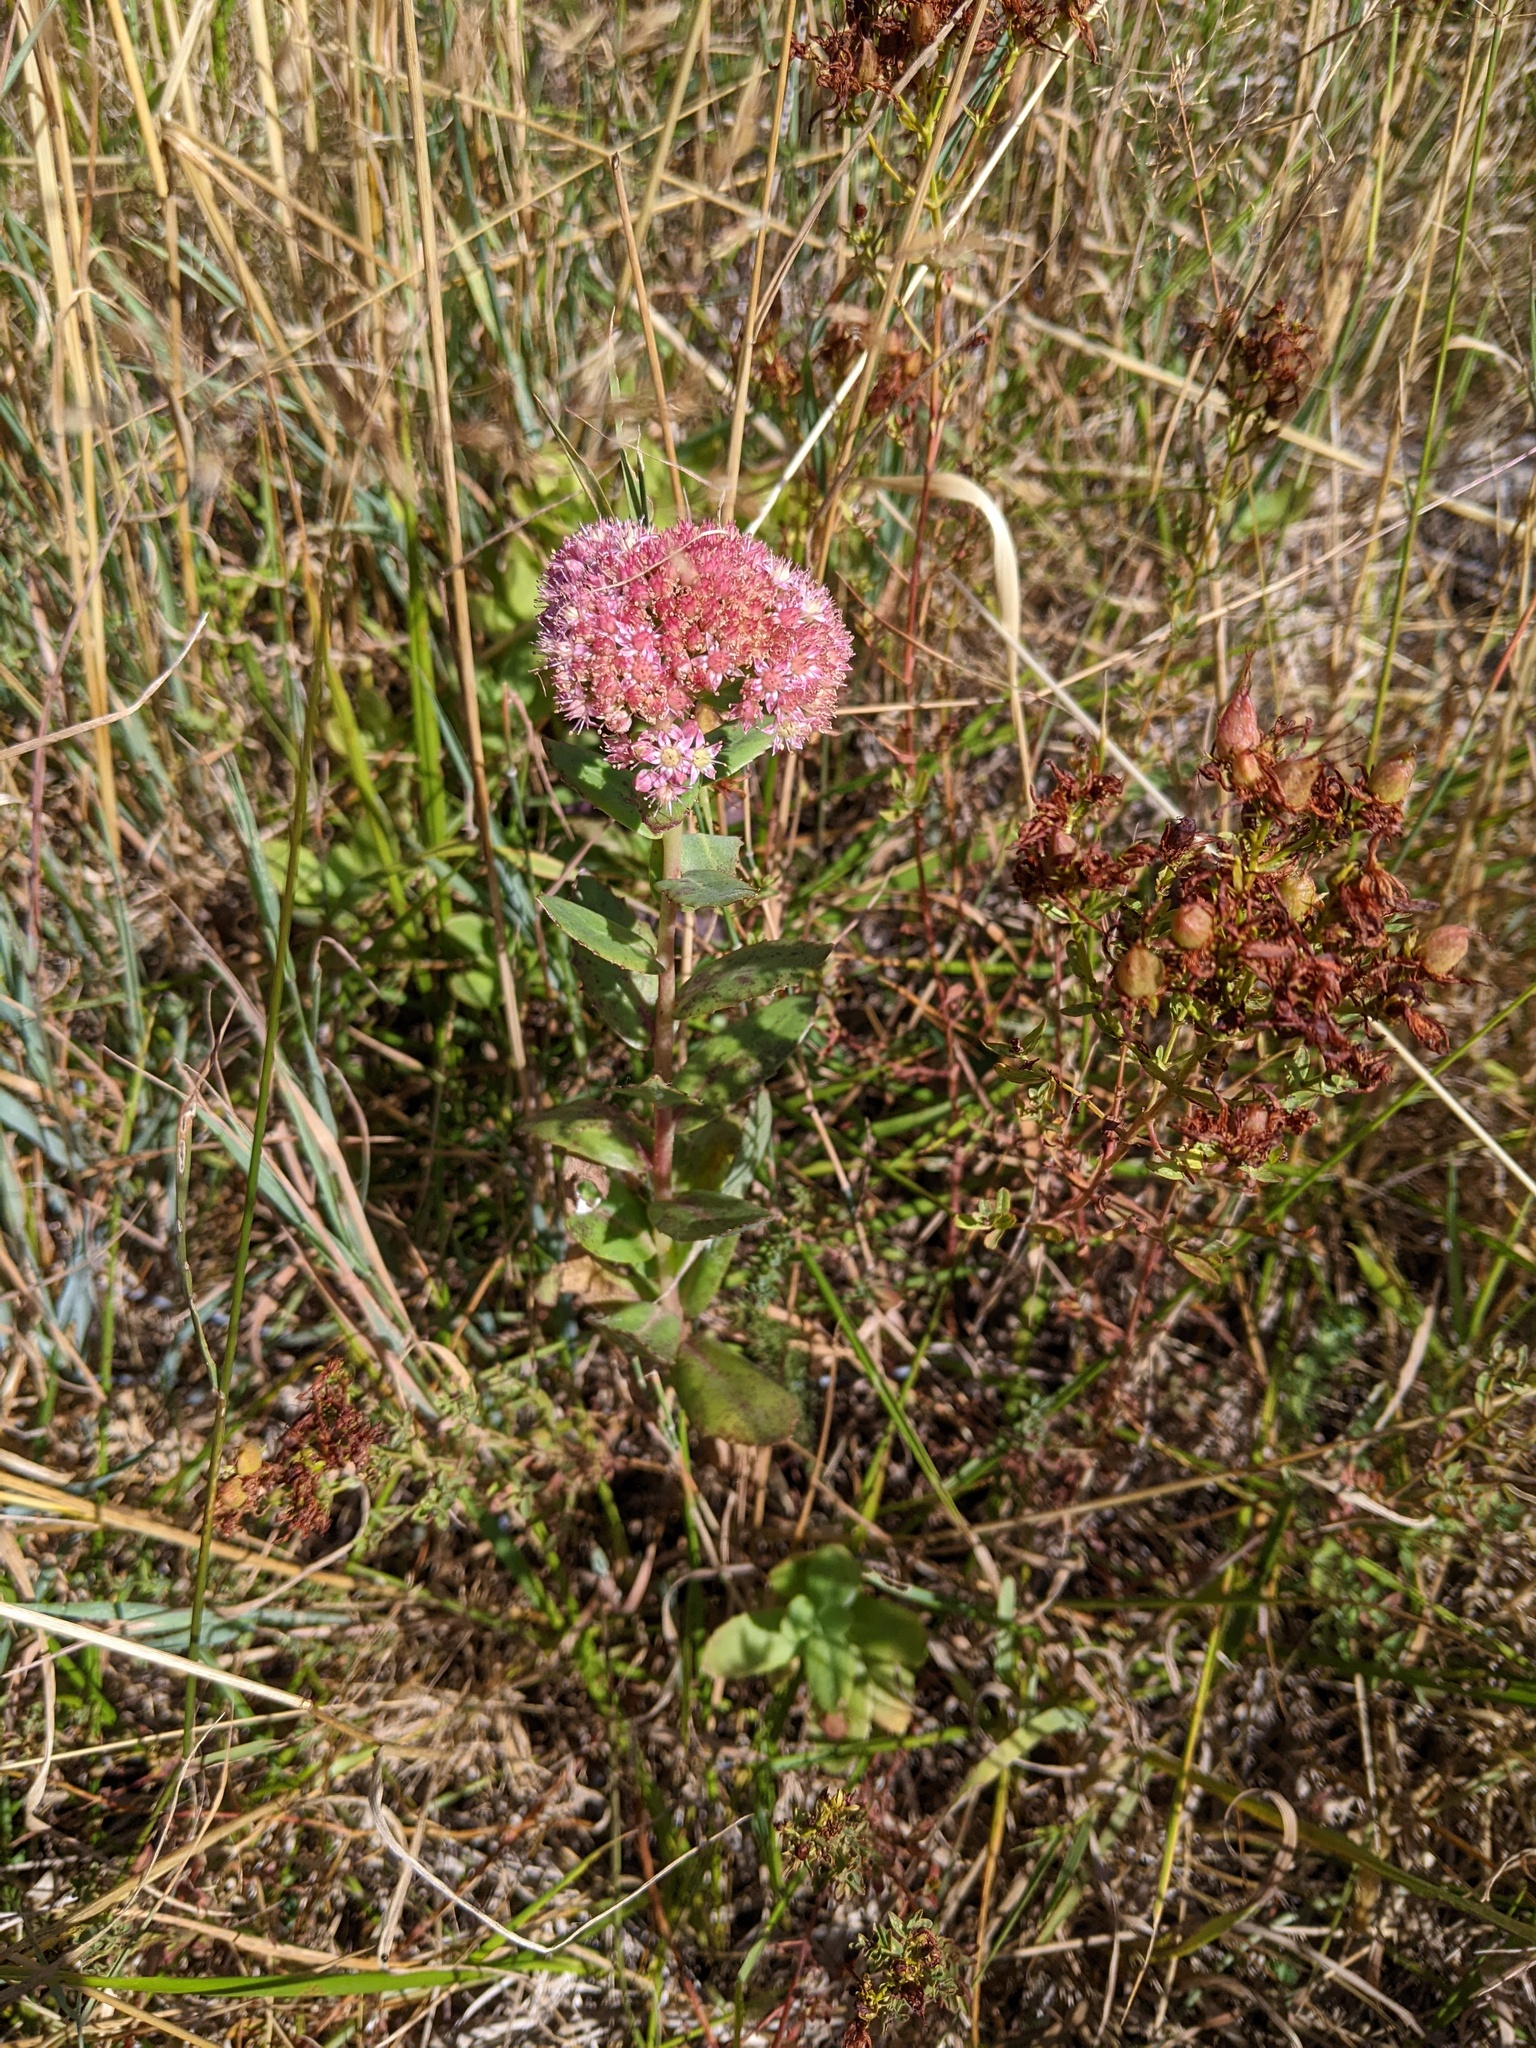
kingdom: Plantae
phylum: Tracheophyta
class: Magnoliopsida
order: Saxifragales
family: Crassulaceae
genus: Hylotelephium
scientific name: Hylotelephium telephium
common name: Live-forever
